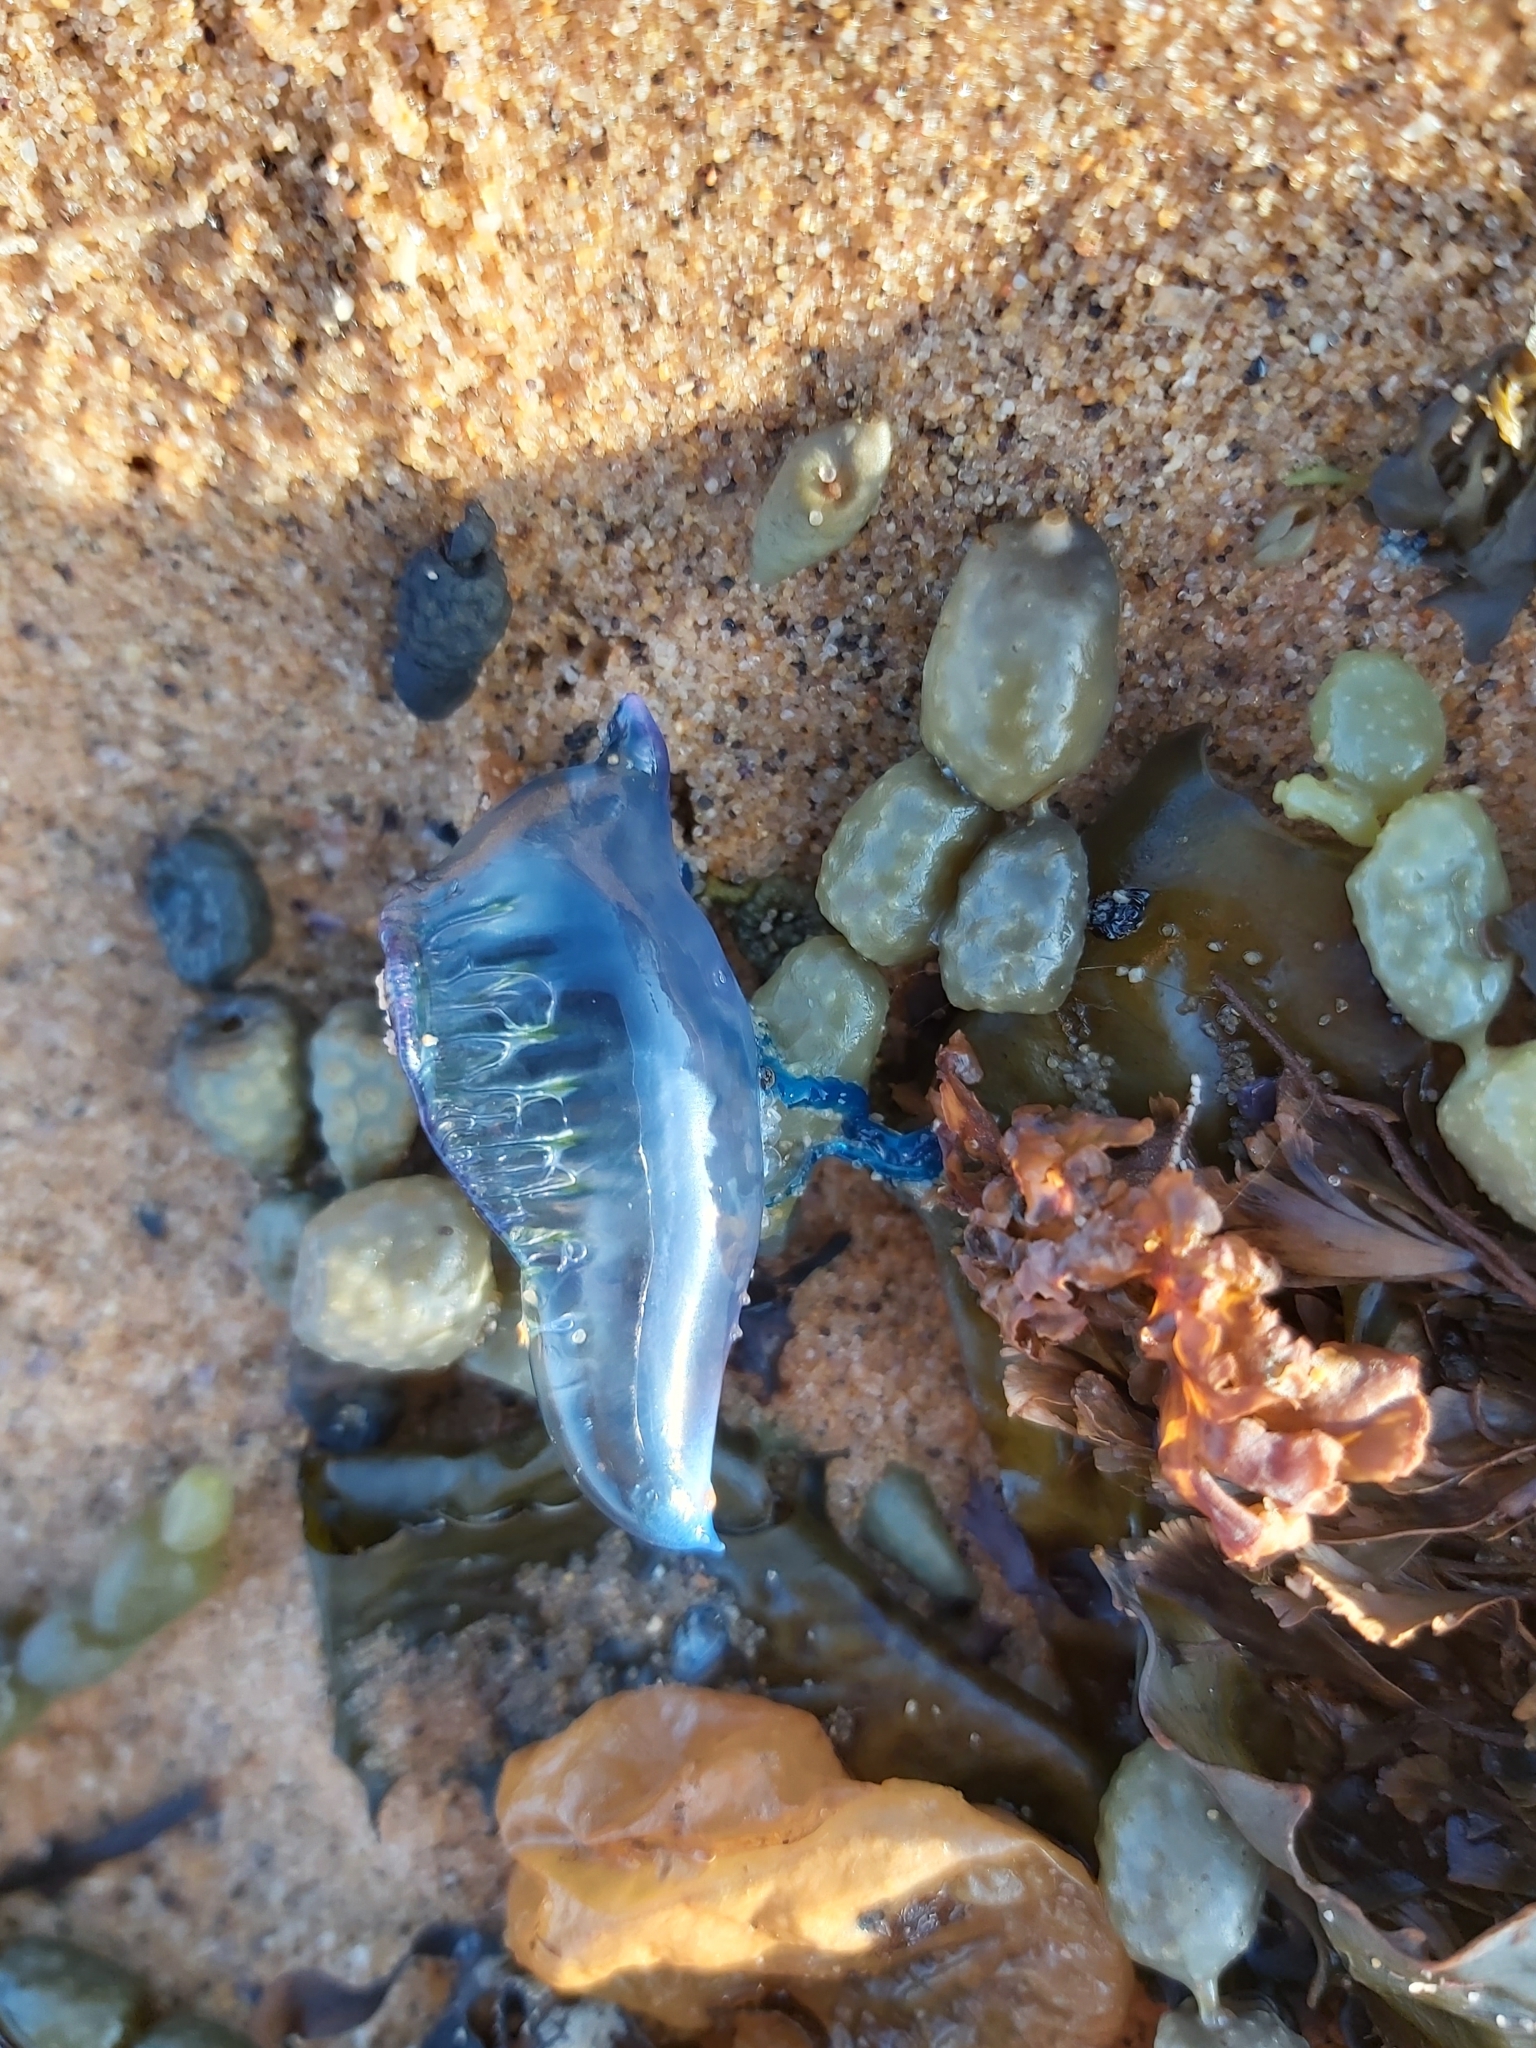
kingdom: Animalia
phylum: Cnidaria
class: Hydrozoa
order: Siphonophorae
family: Physaliidae
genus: Physalia
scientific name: Physalia physalis
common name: Portuguese man-of-war
